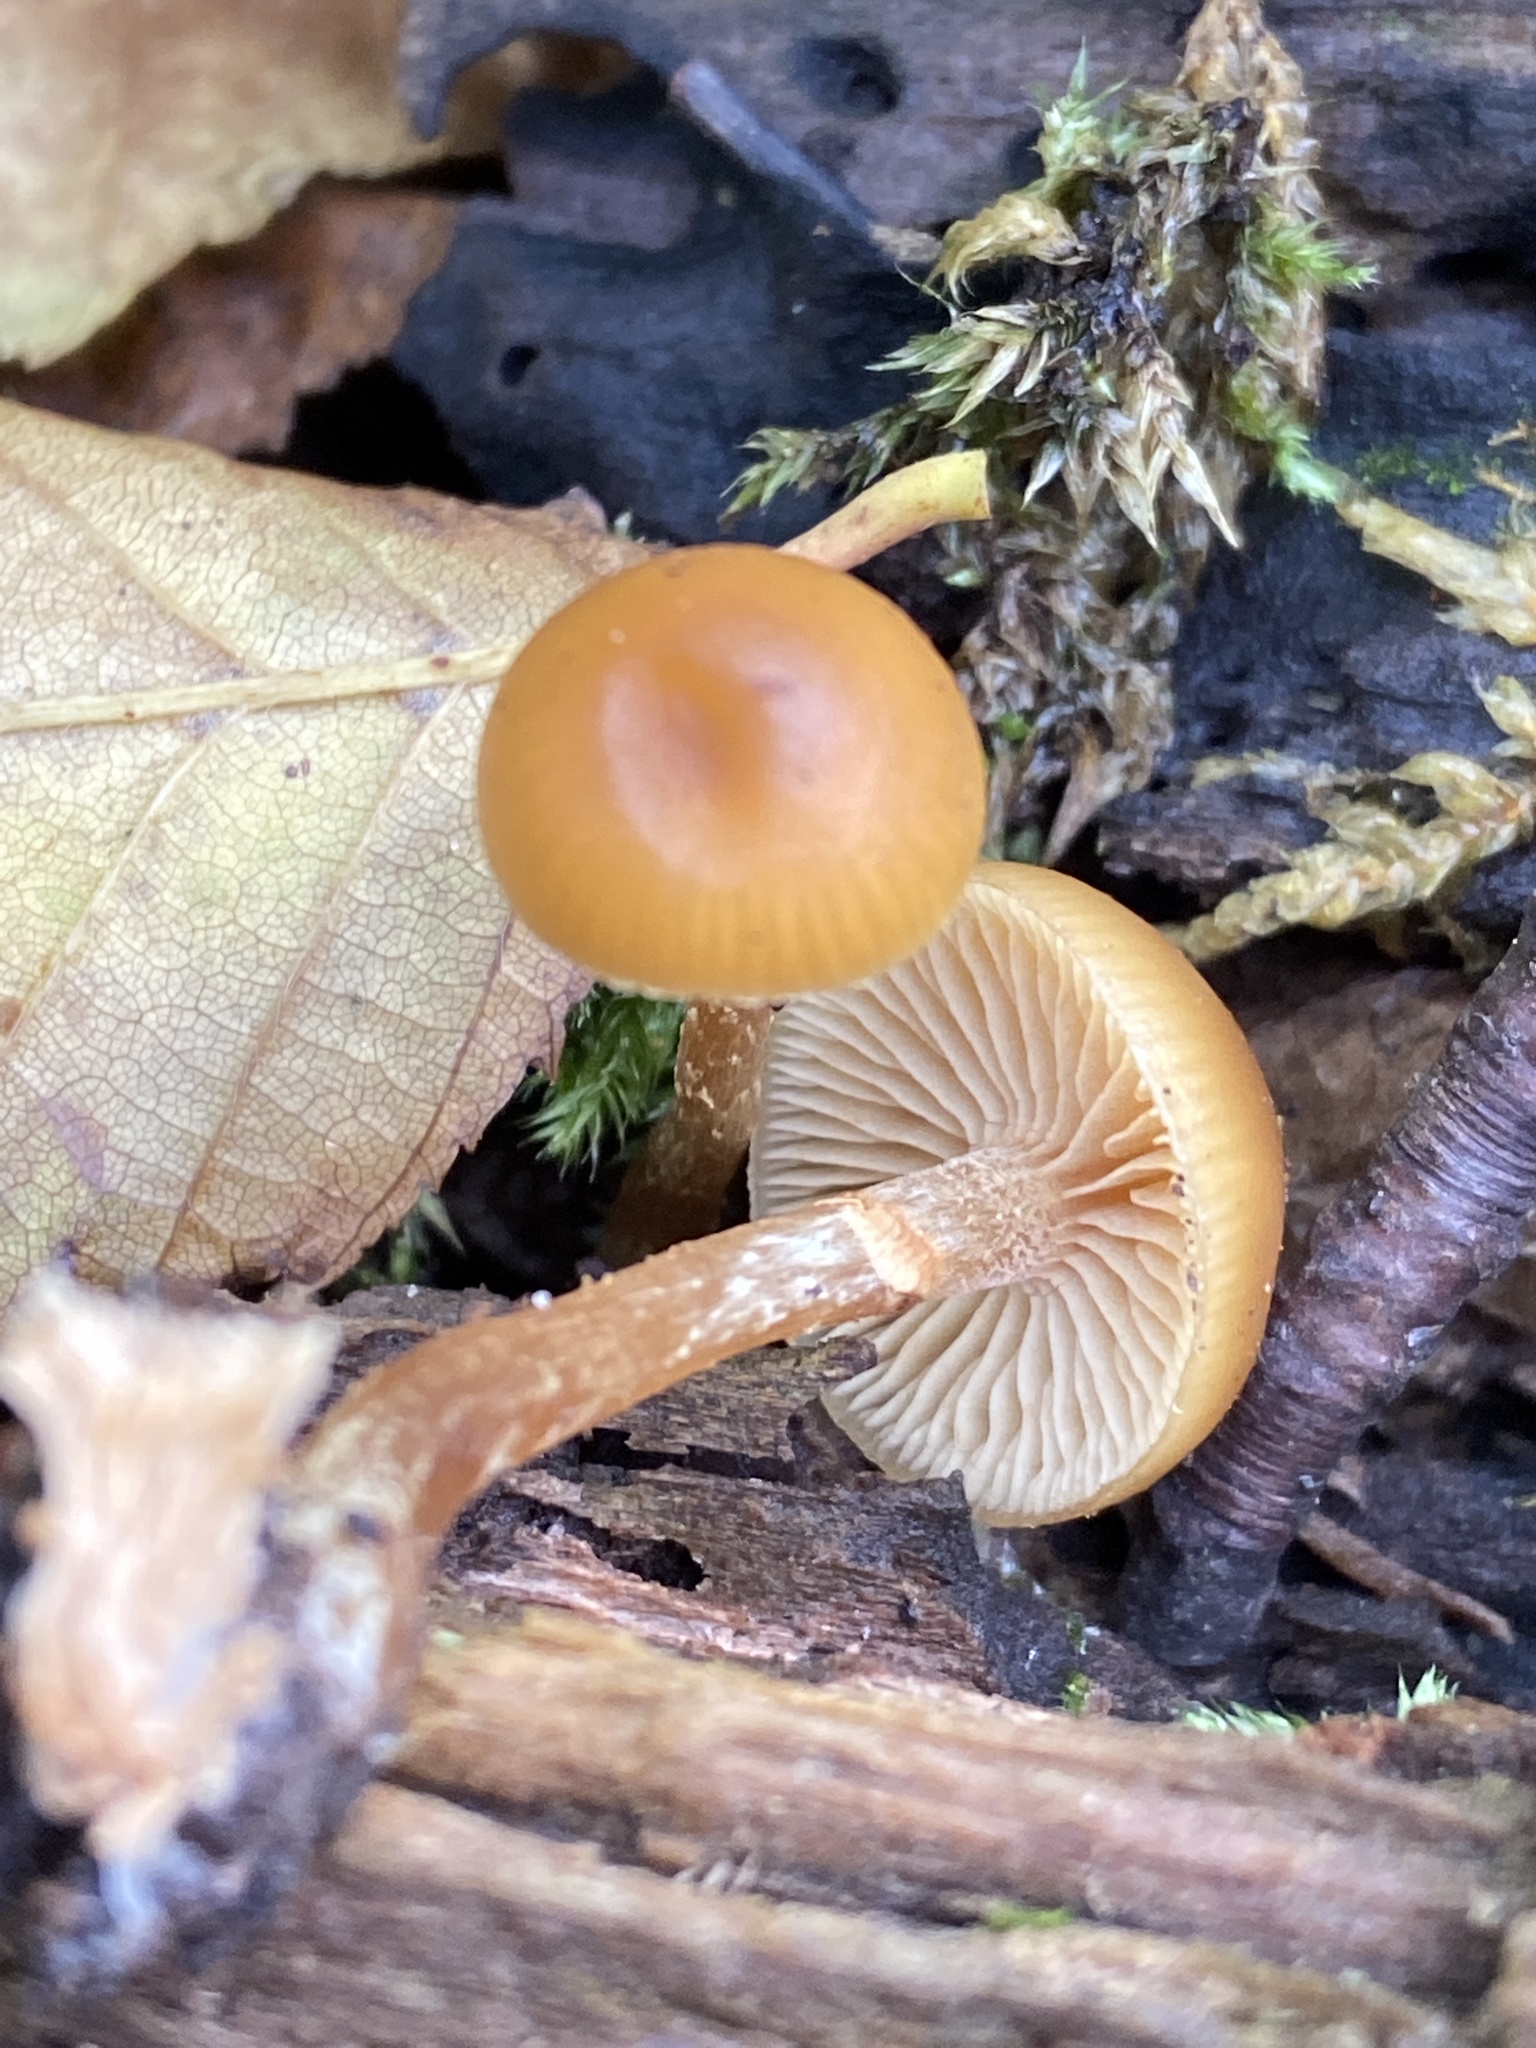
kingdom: Fungi
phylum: Basidiomycota
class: Agaricomycetes
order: Agaricales
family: Hymenogastraceae
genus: Galerina
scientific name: Galerina marginata
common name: Funeral bell
